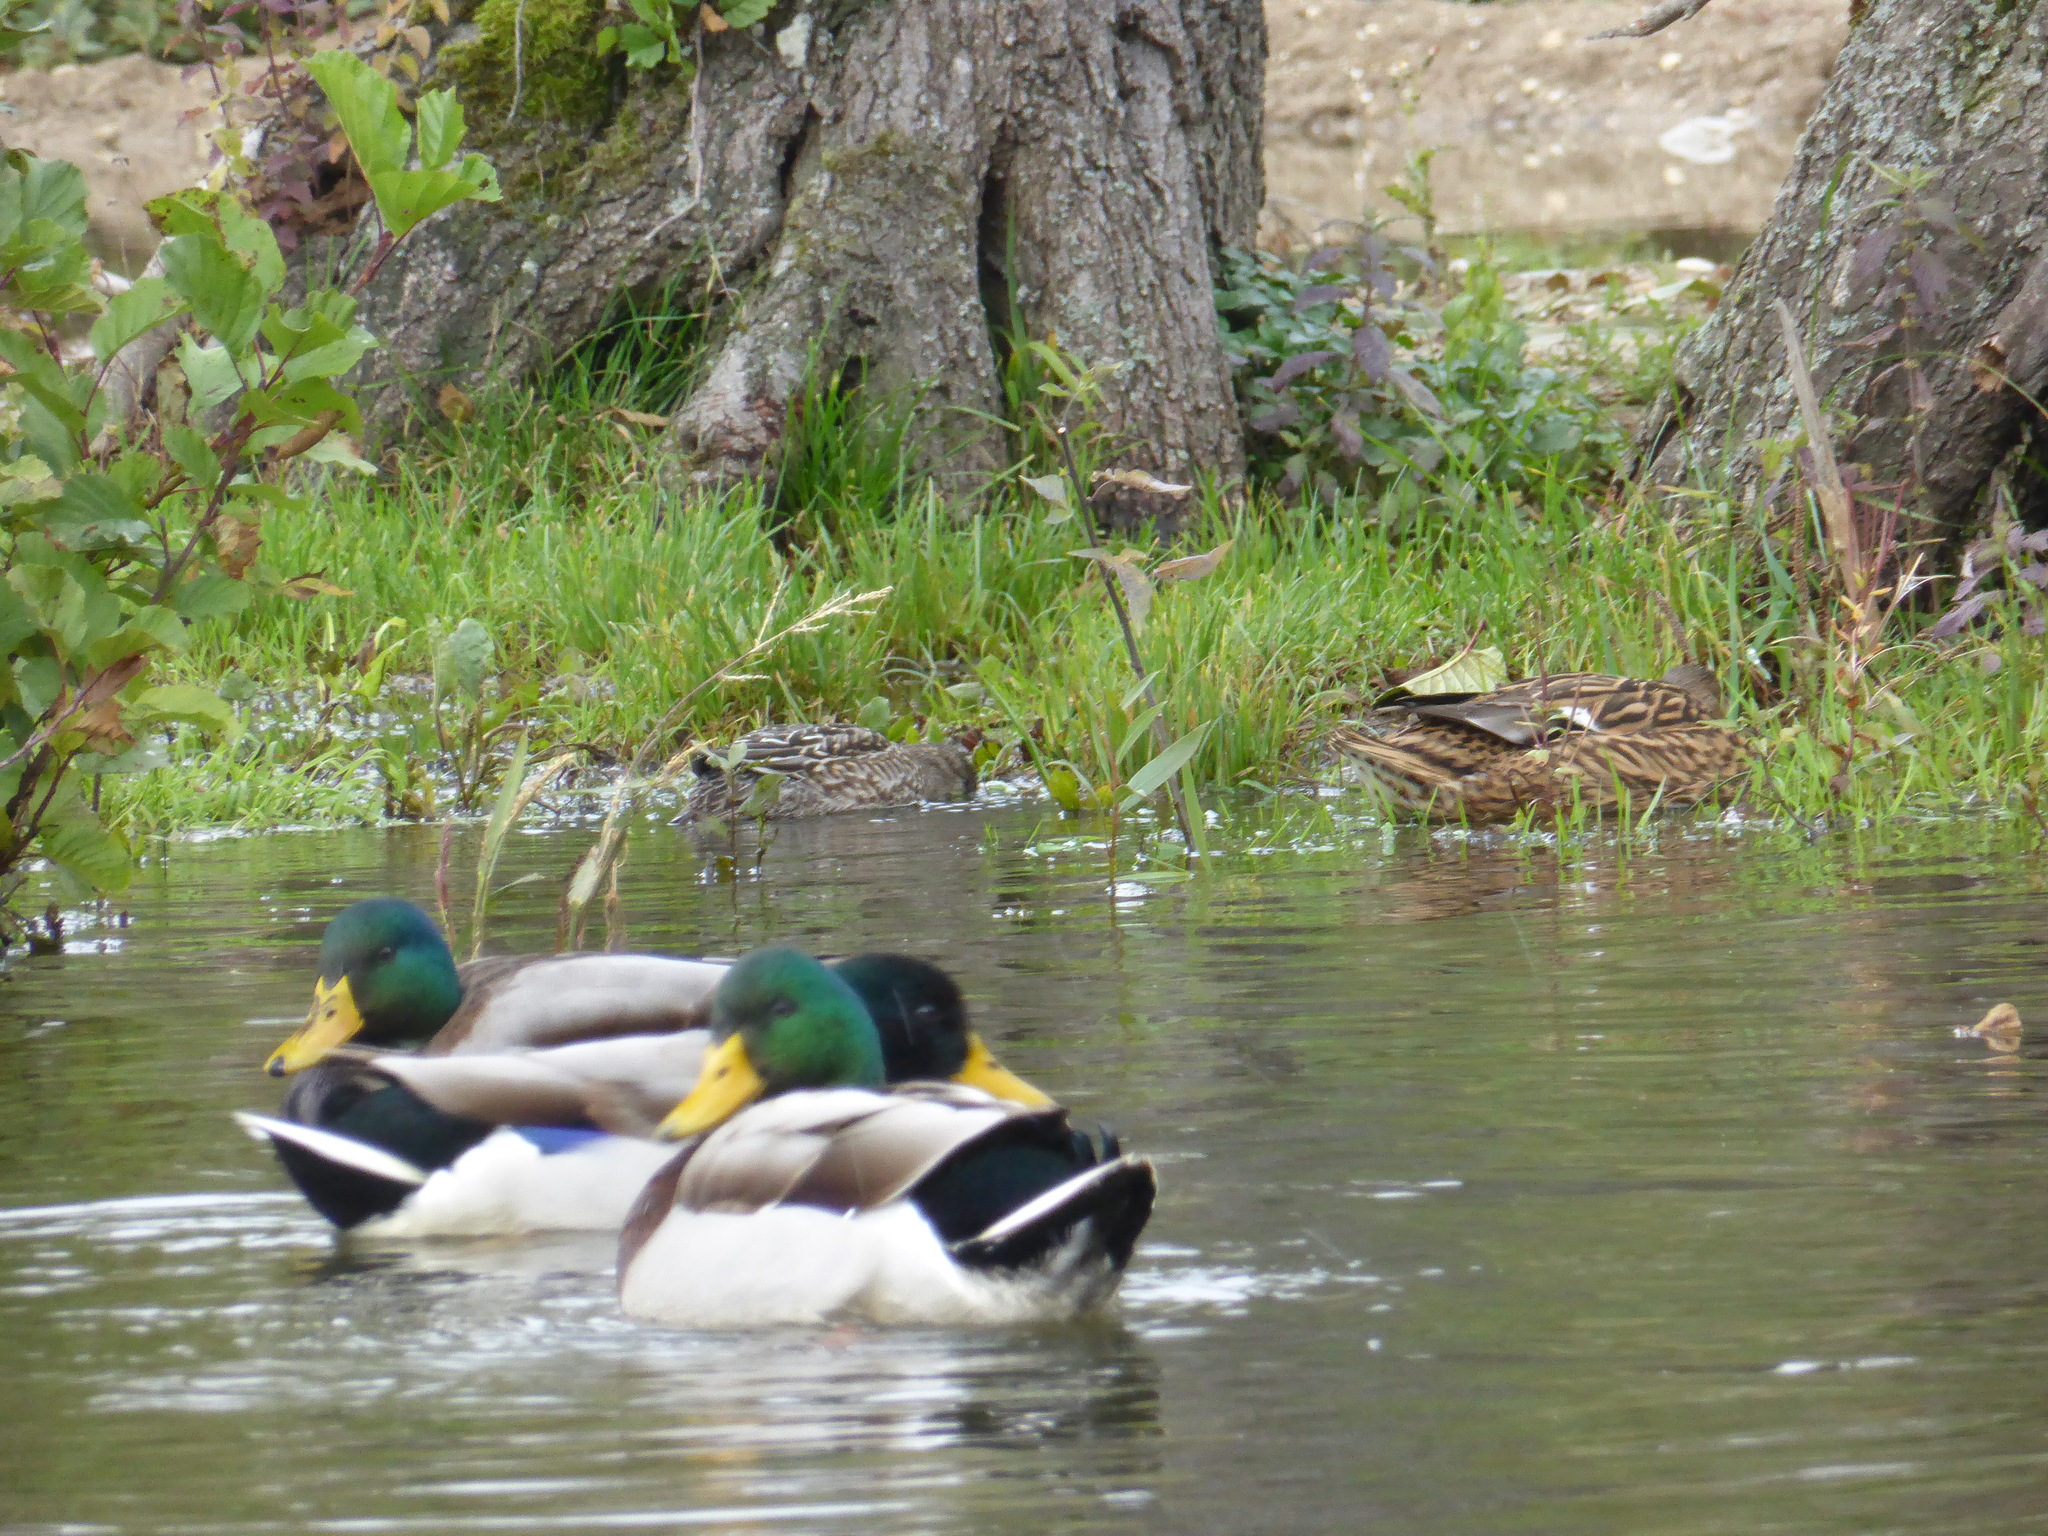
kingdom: Animalia
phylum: Chordata
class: Aves
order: Anseriformes
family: Anatidae
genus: Anas
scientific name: Anas crecca
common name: Eurasian teal
